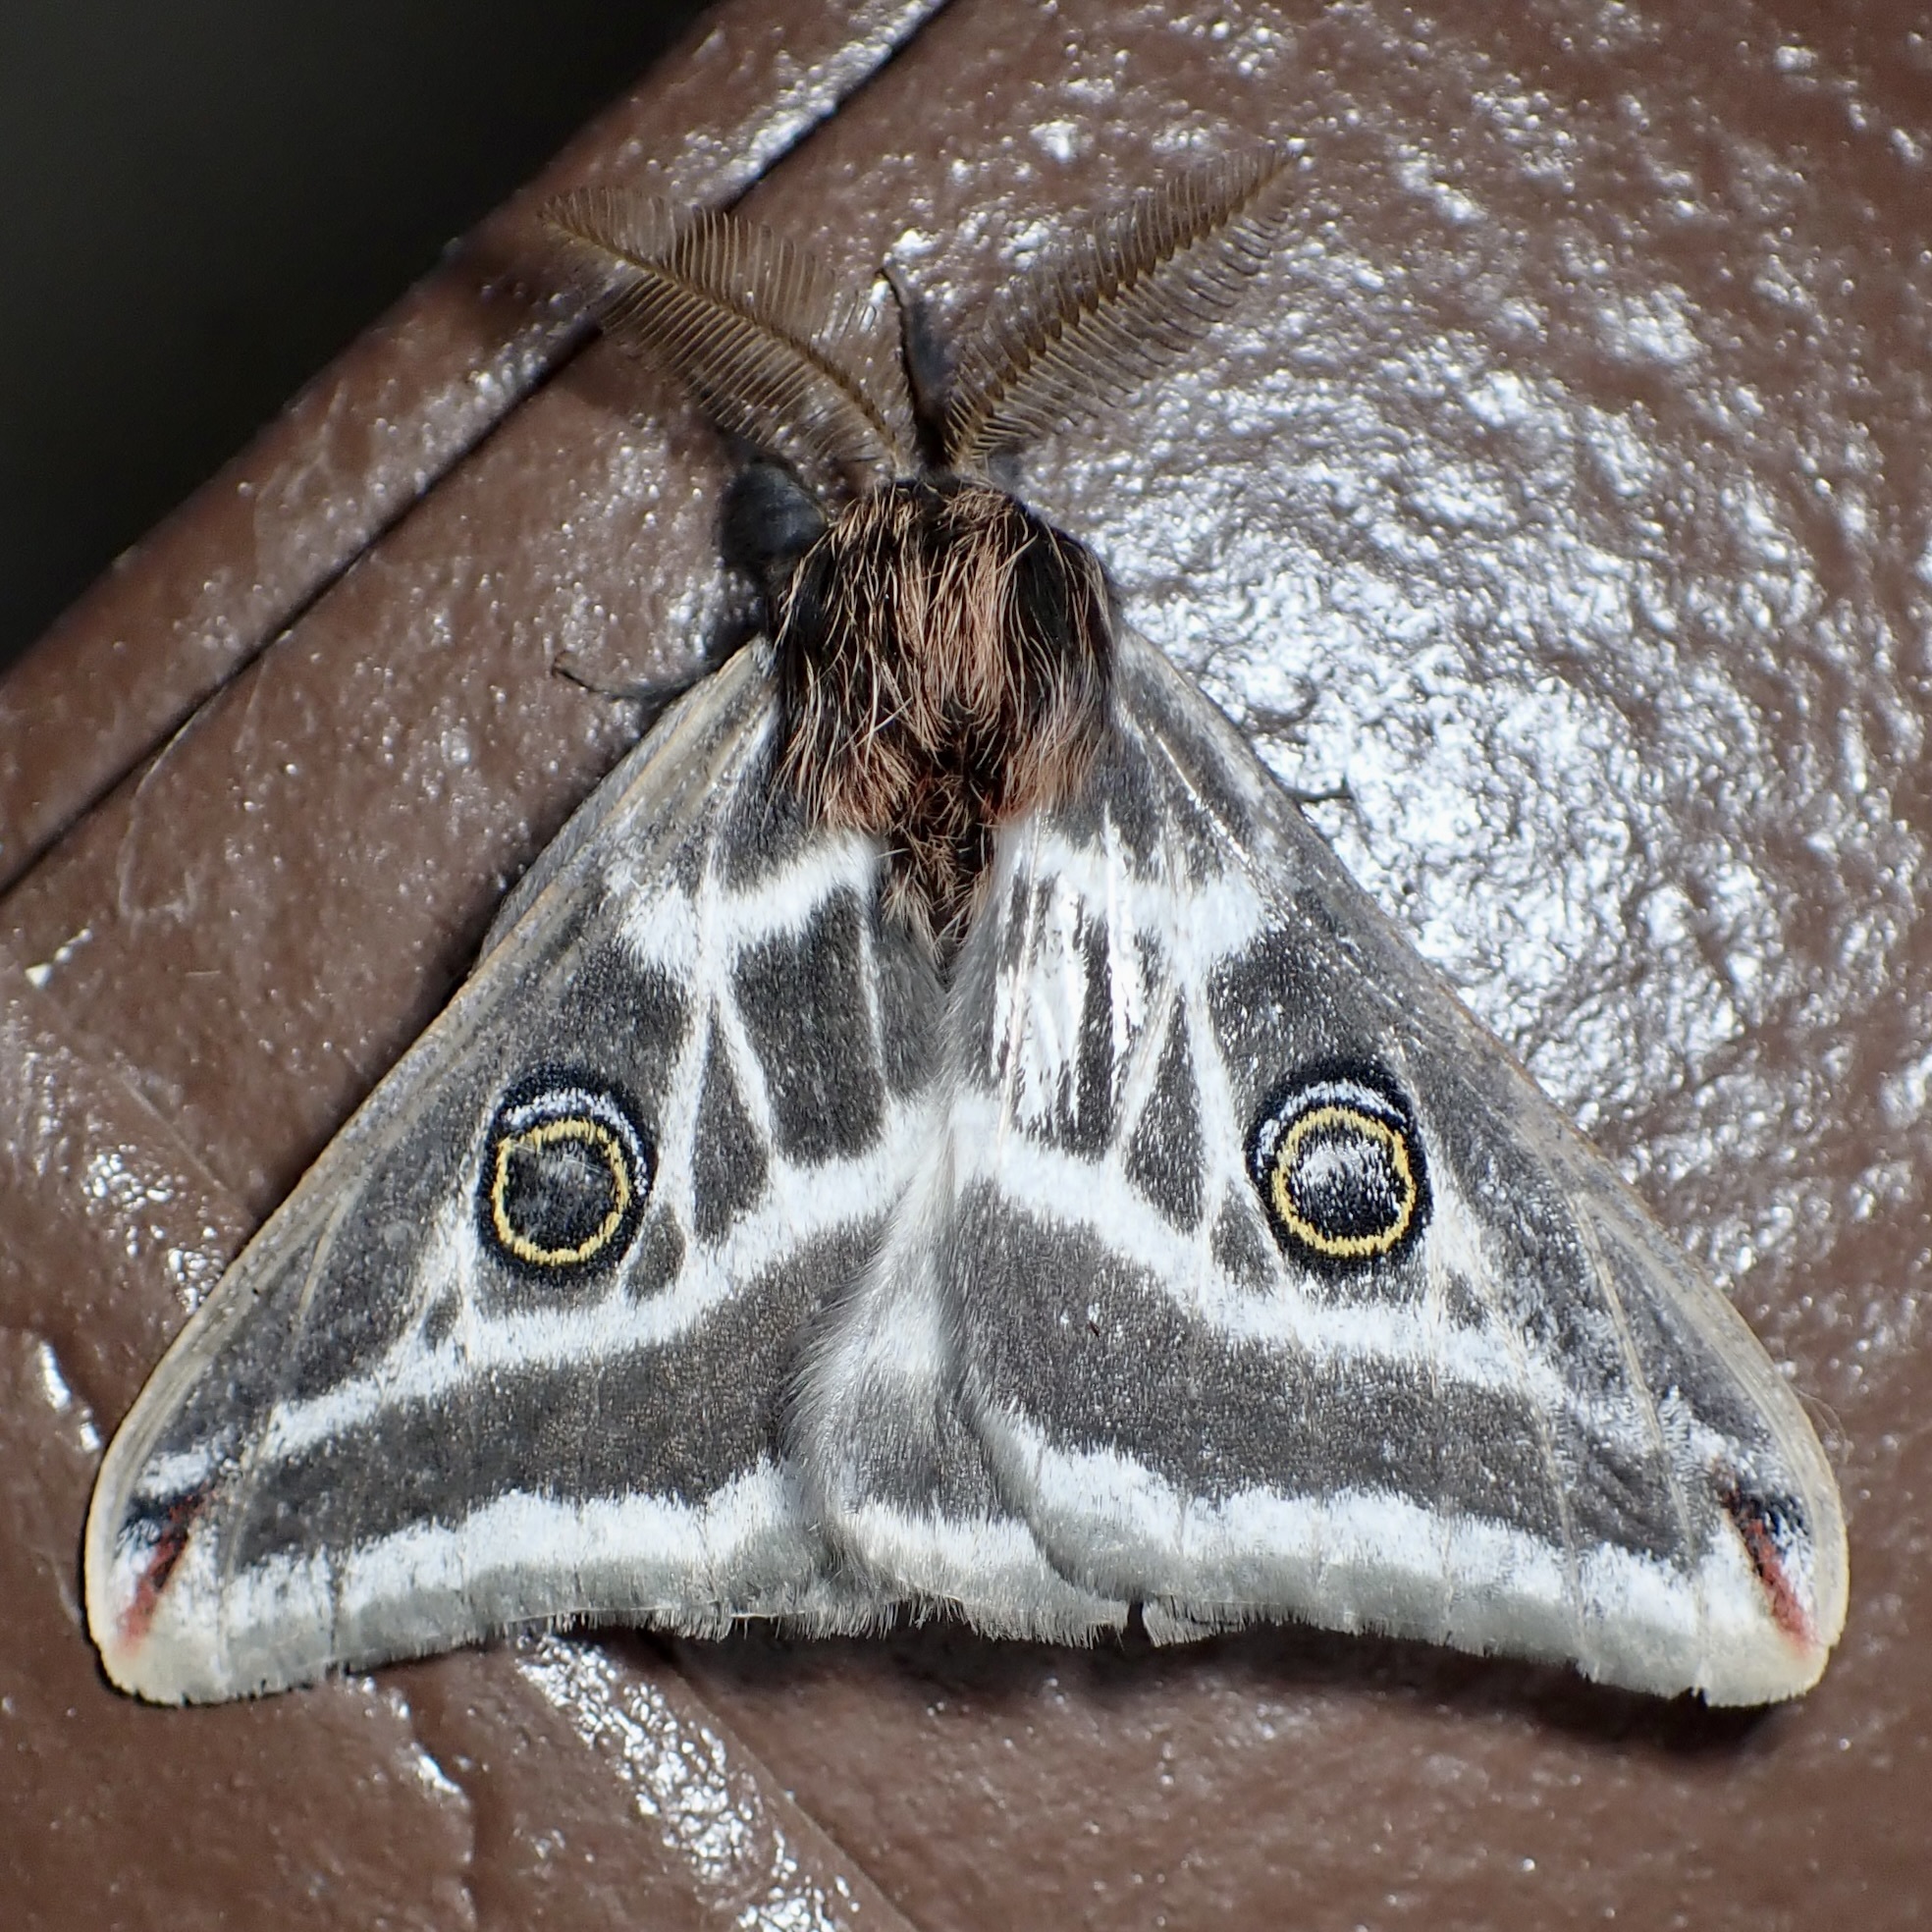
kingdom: Animalia
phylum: Arthropoda
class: Insecta
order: Lepidoptera
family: Saturniidae
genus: Saturnia
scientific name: Saturnia anona
